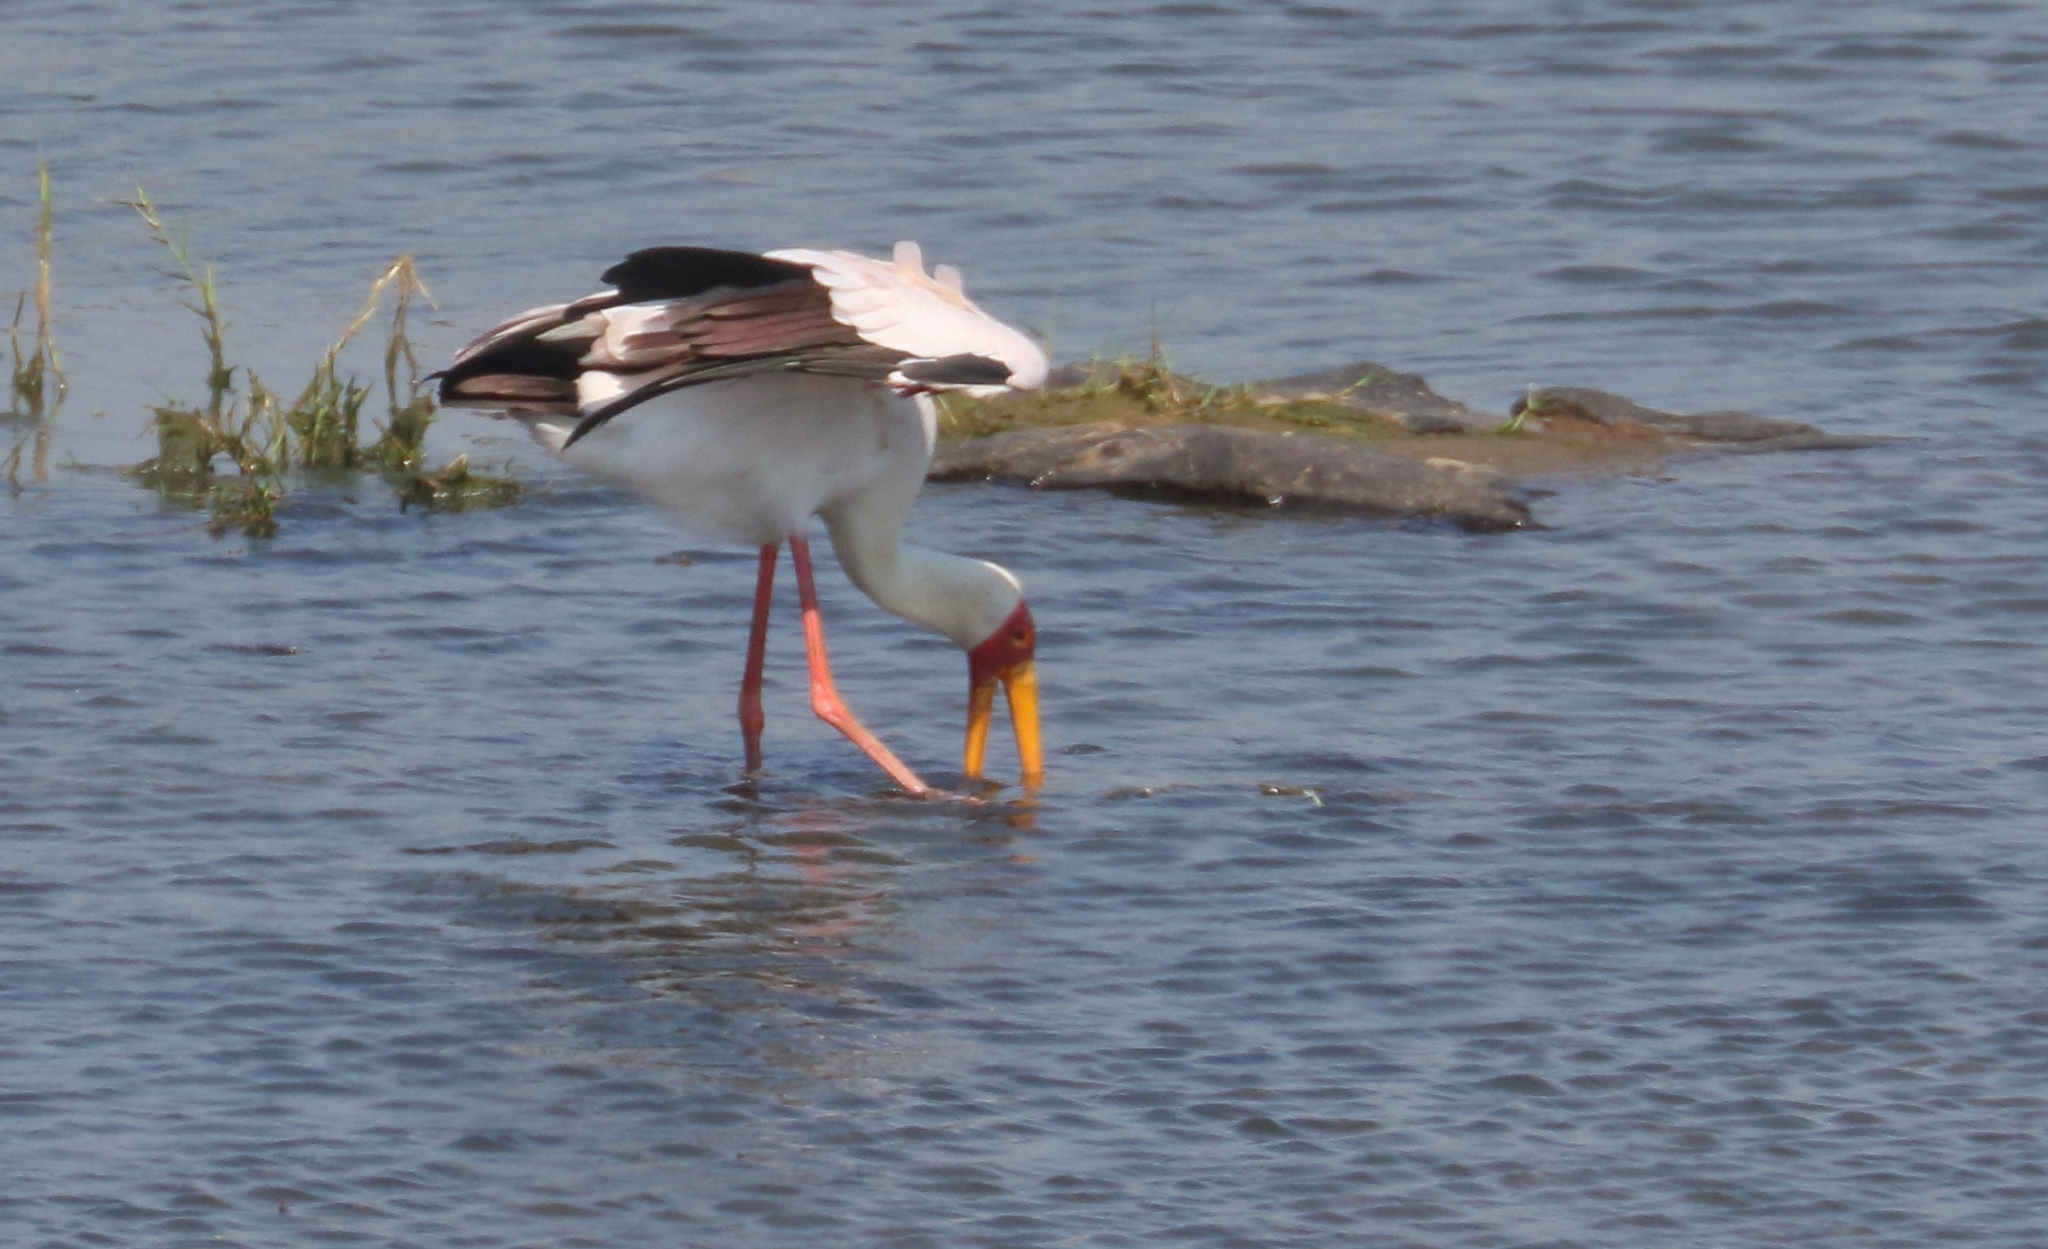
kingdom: Animalia
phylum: Chordata
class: Aves
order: Ciconiiformes
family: Ciconiidae
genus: Mycteria
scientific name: Mycteria ibis
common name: Yellow-billed stork
